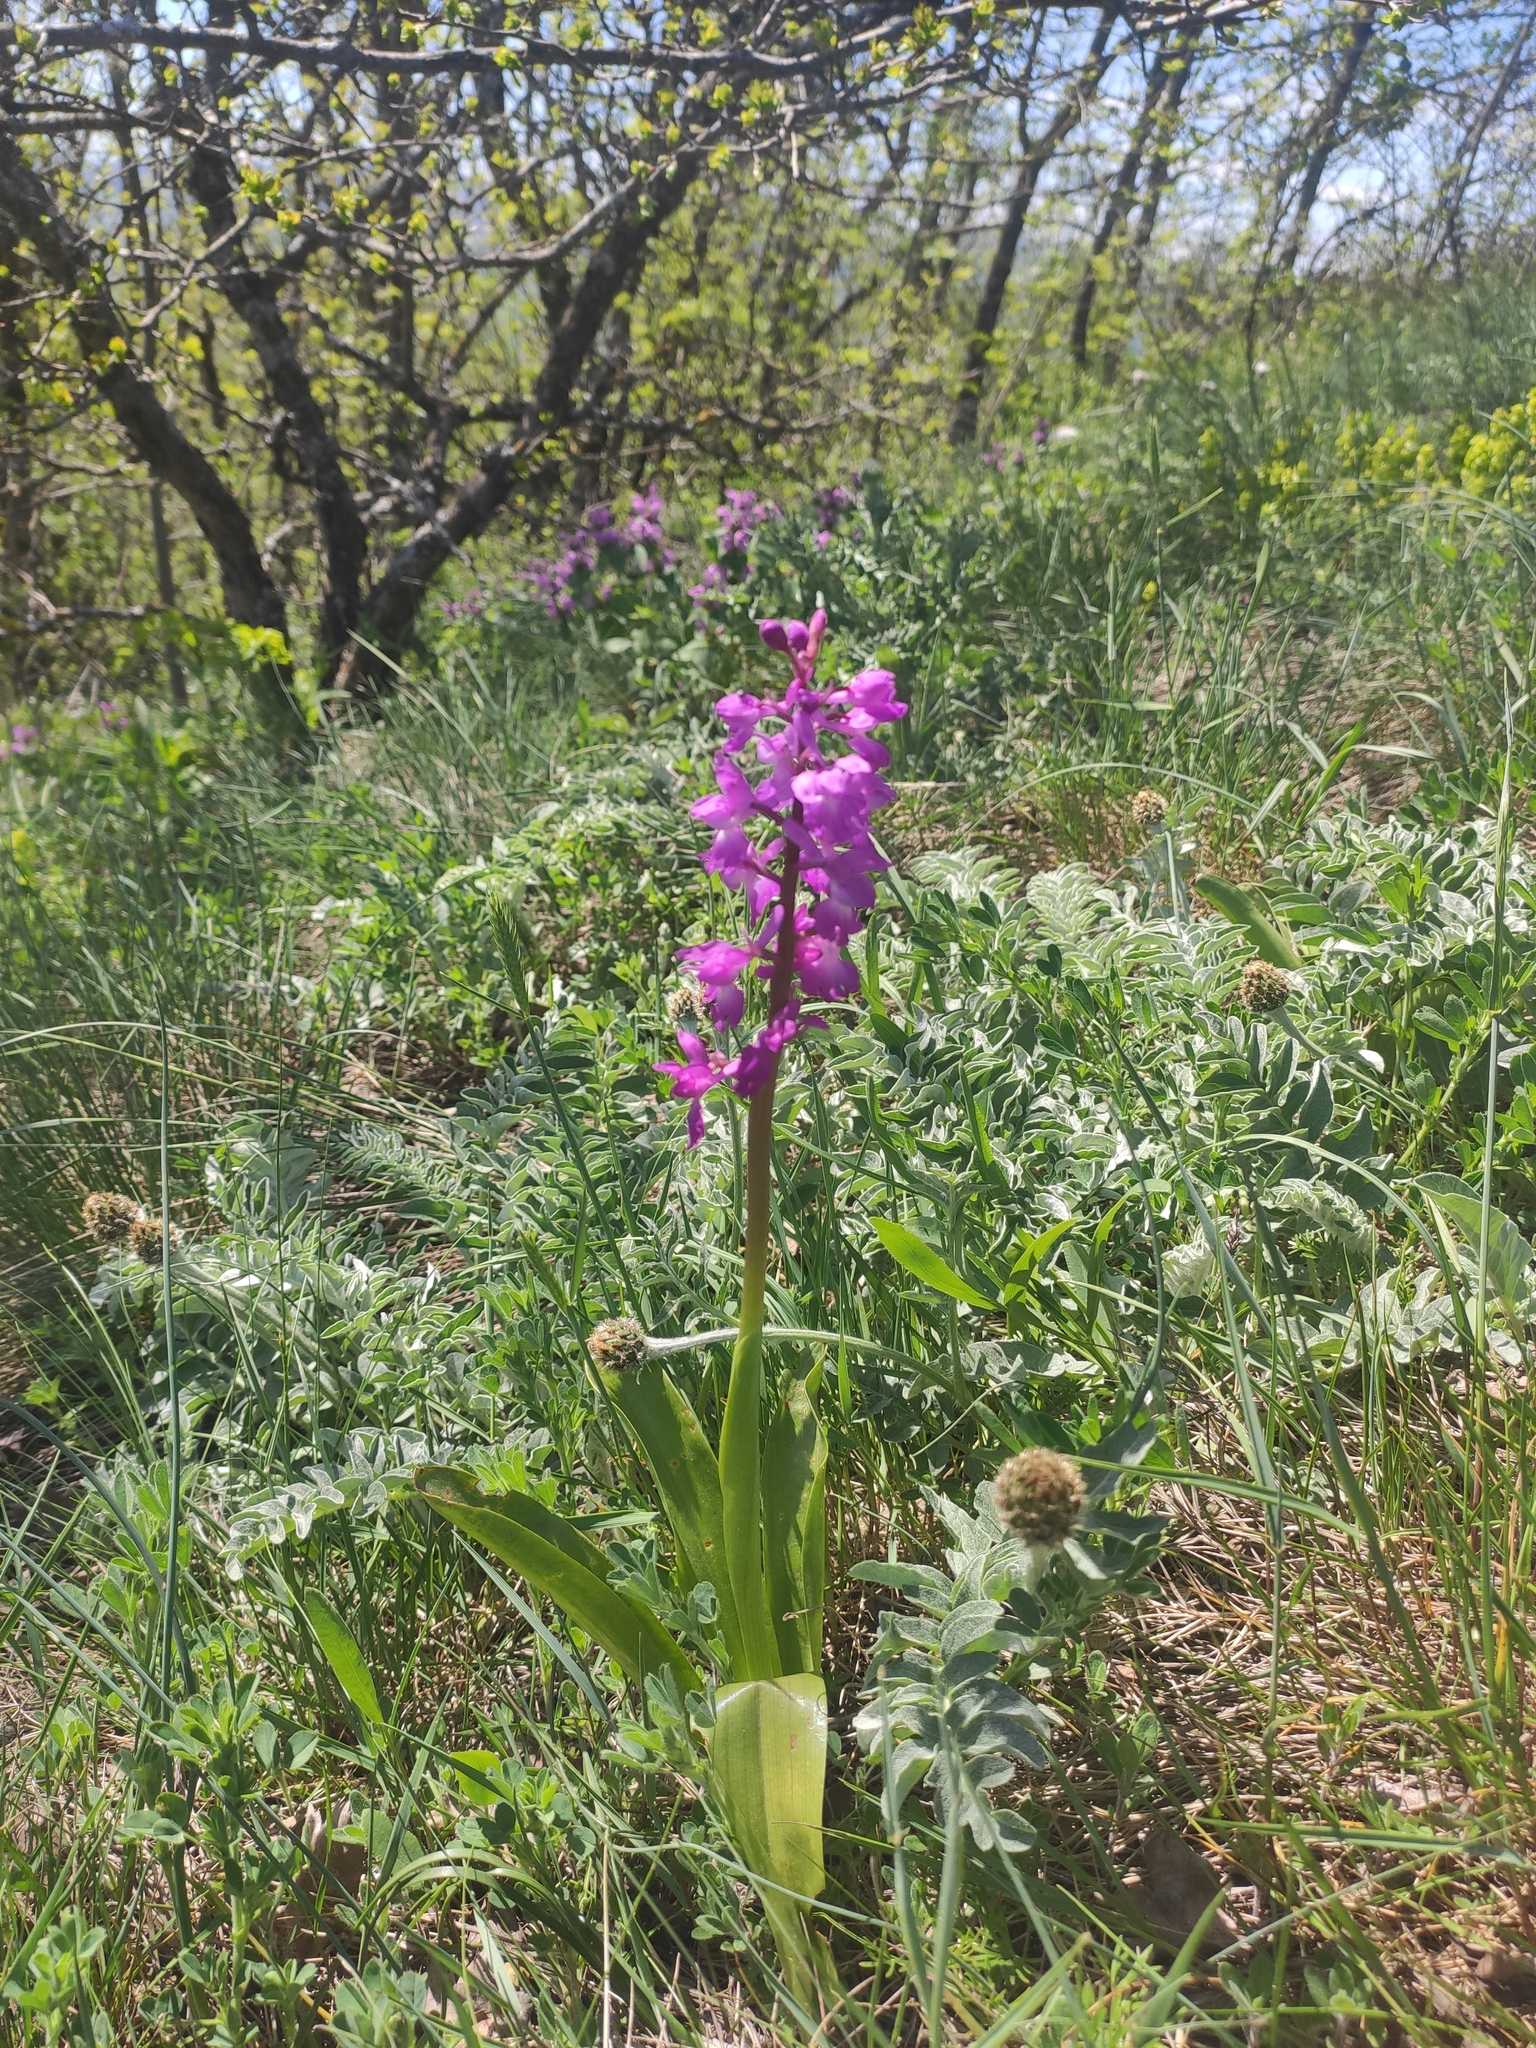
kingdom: Plantae
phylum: Tracheophyta
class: Liliopsida
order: Asparagales
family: Orchidaceae
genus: Orchis
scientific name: Orchis mascula
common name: Early-purple orchid
